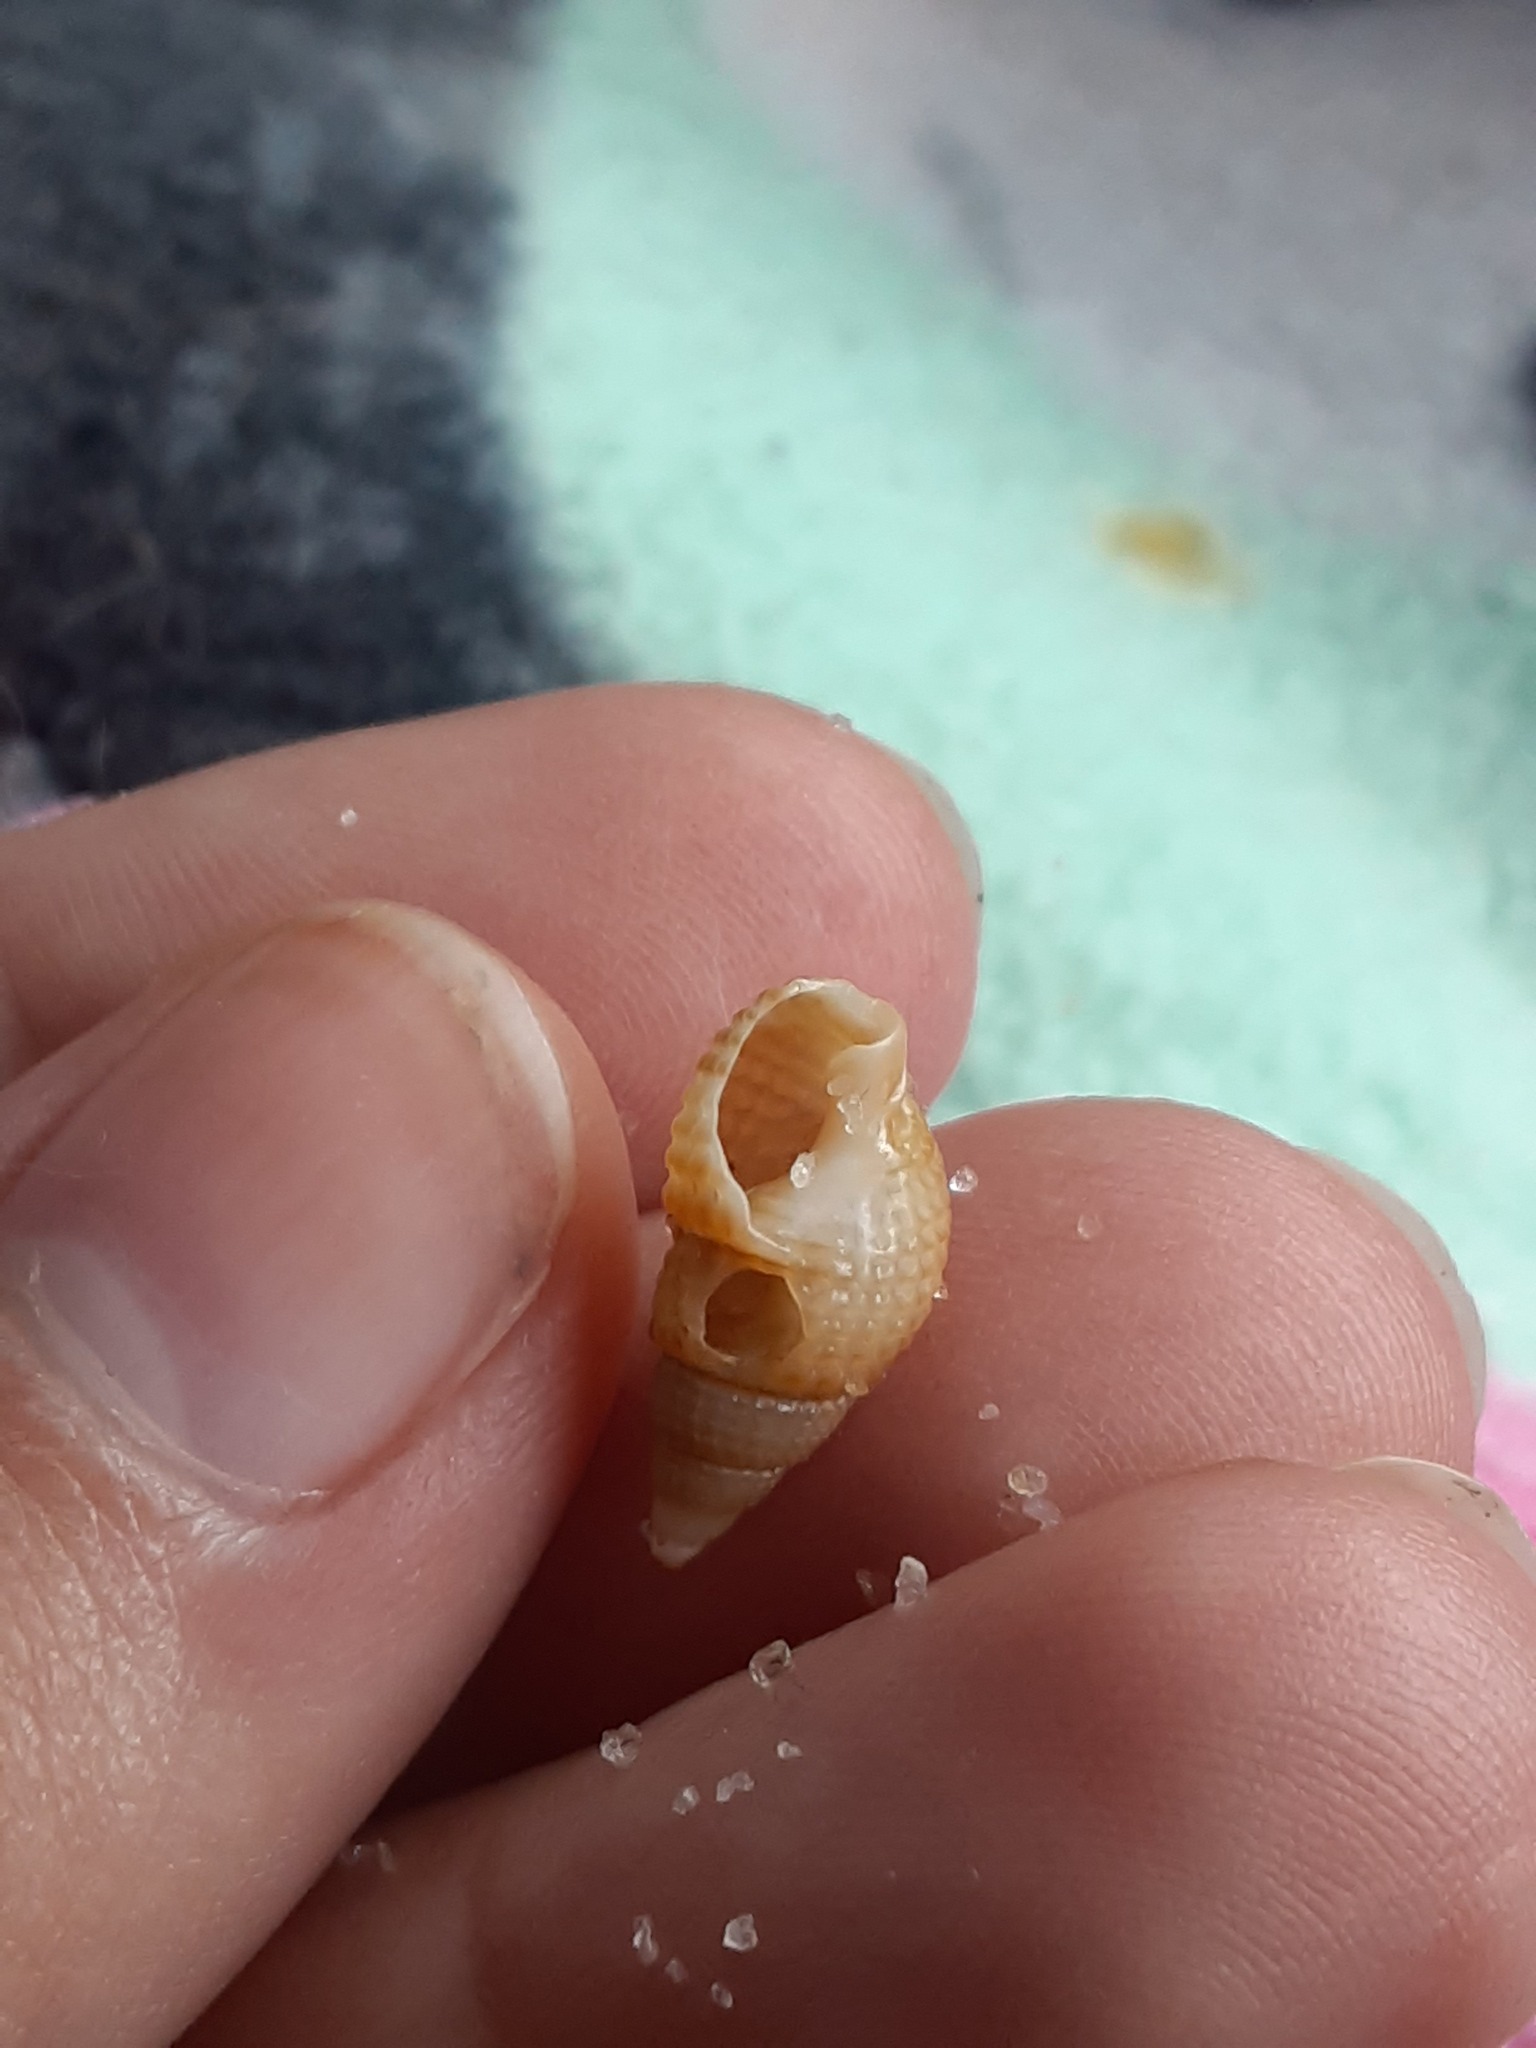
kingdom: Animalia
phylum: Mollusca
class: Gastropoda
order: Neogastropoda
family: Nassariidae
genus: Ilyanassa
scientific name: Ilyanassa trivittata
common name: Three-line mudsnail
